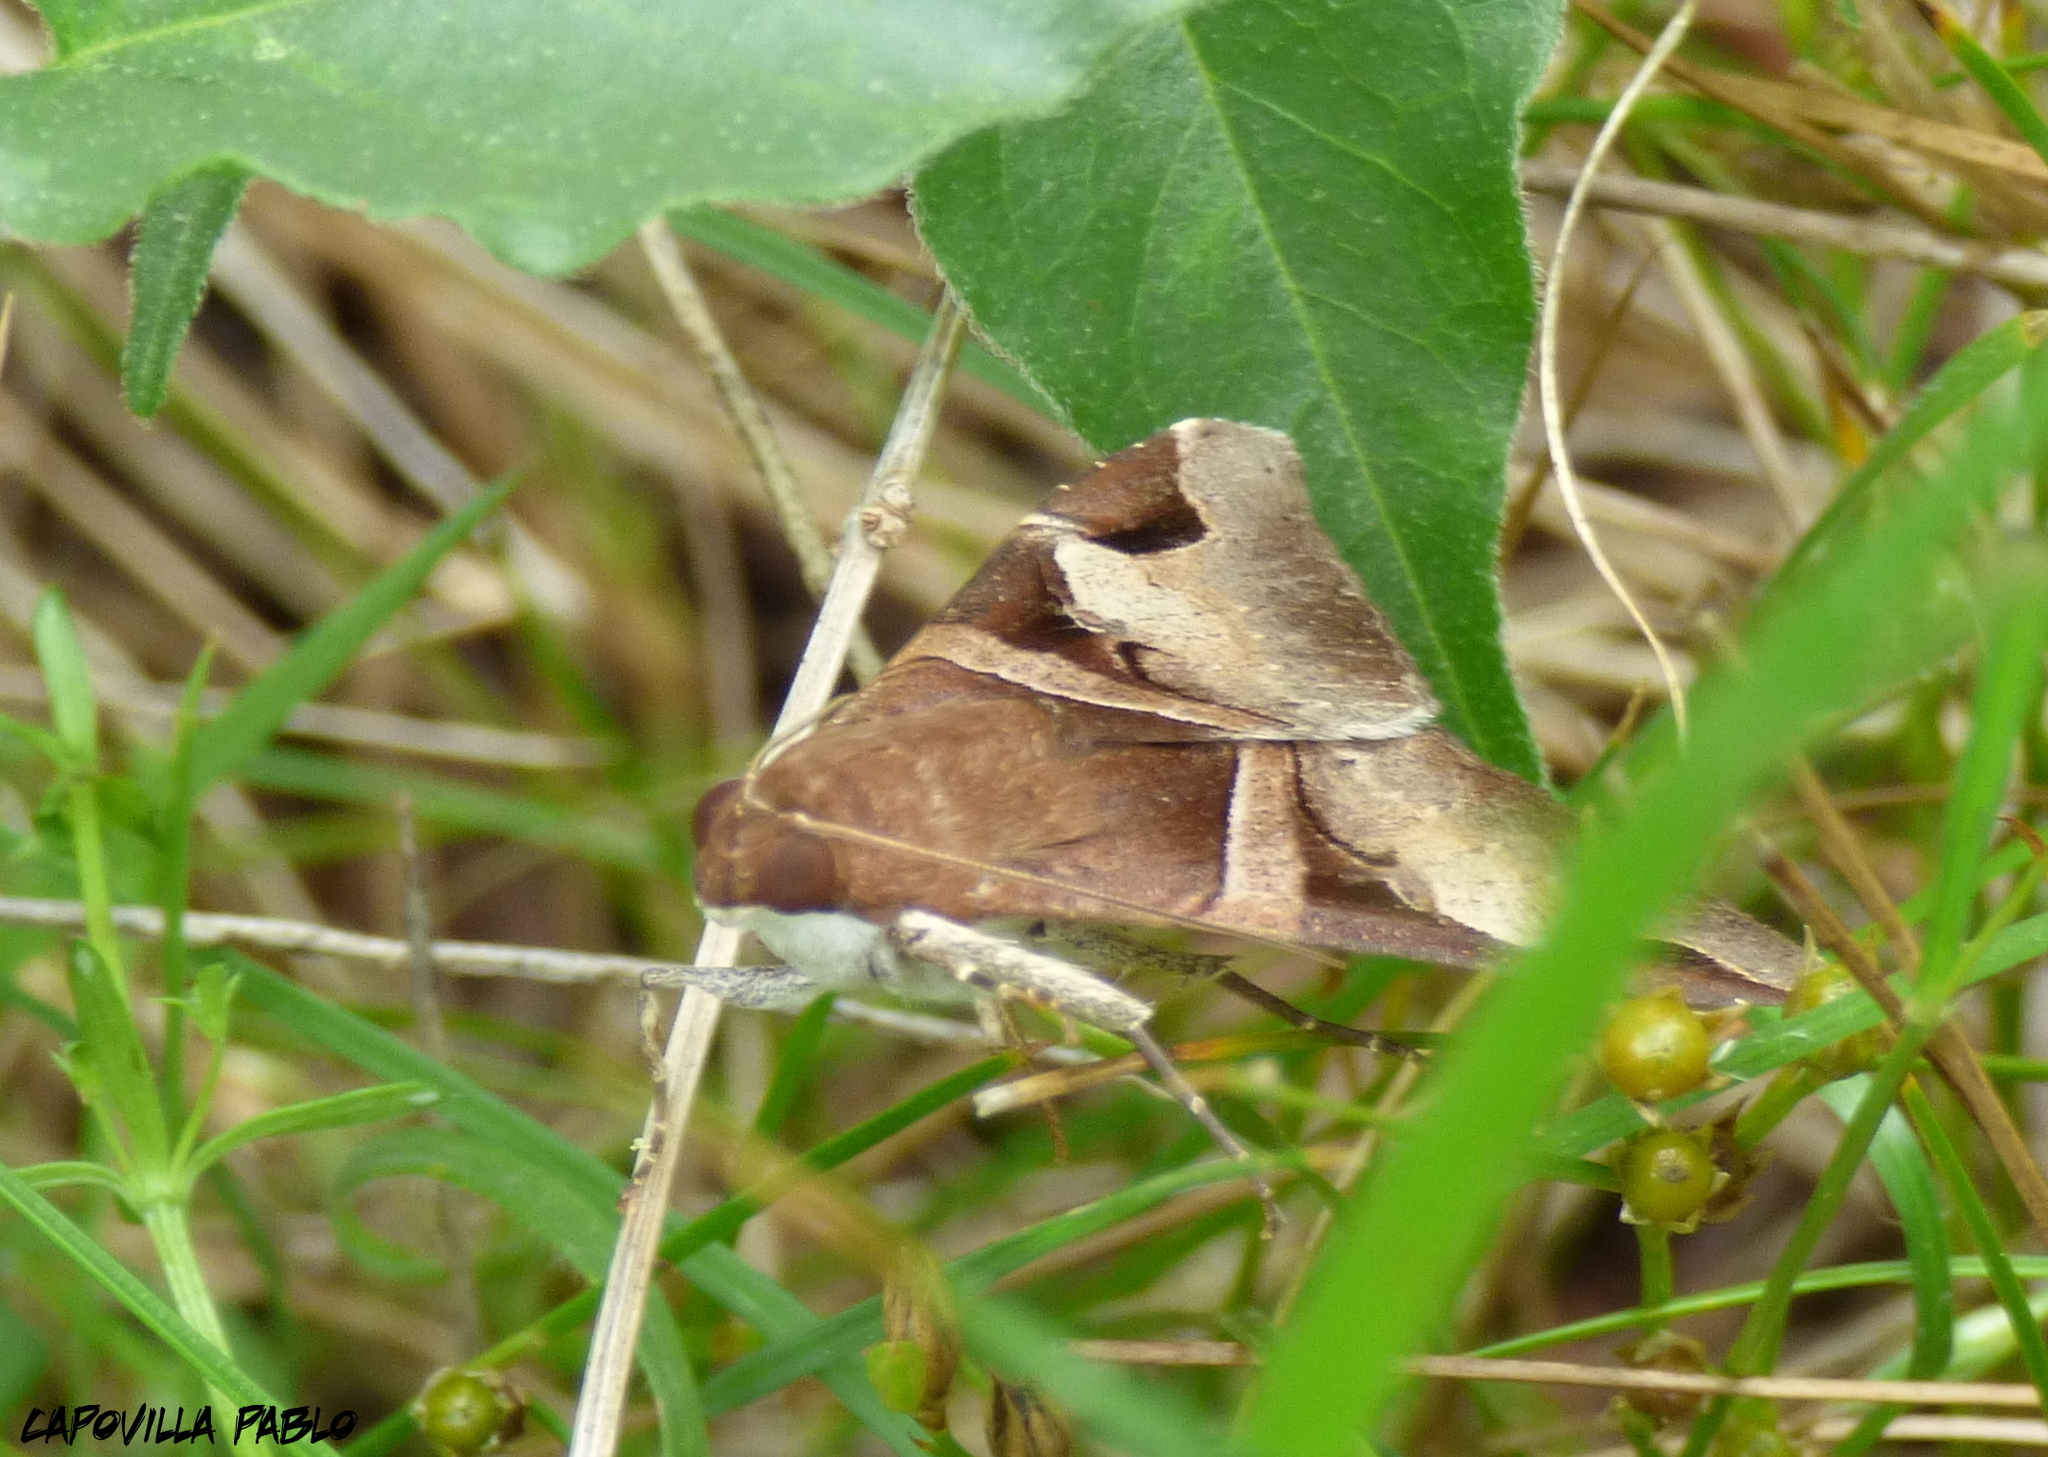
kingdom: Animalia
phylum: Arthropoda
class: Insecta
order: Lepidoptera
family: Erebidae
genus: Melipotis
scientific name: Melipotis fasciolaris
